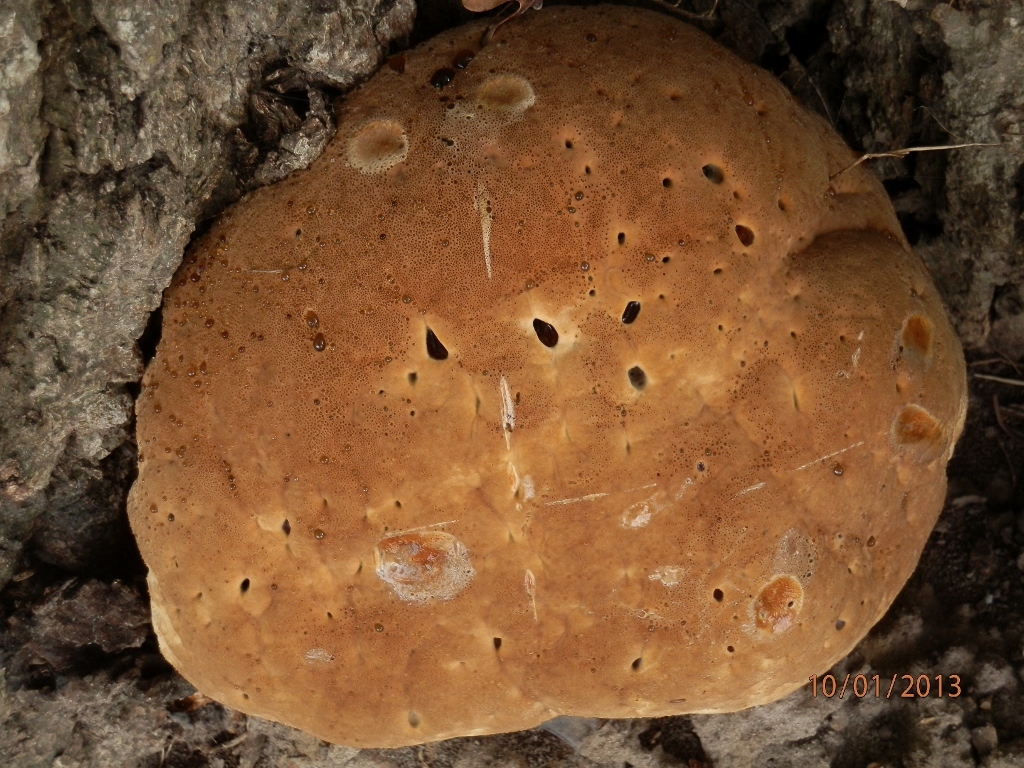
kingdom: Fungi
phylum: Basidiomycota
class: Agaricomycetes
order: Hymenochaetales
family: Hymenochaetaceae
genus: Pseudoinonotus
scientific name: Pseudoinonotus dryadeus
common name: Oak bracket
